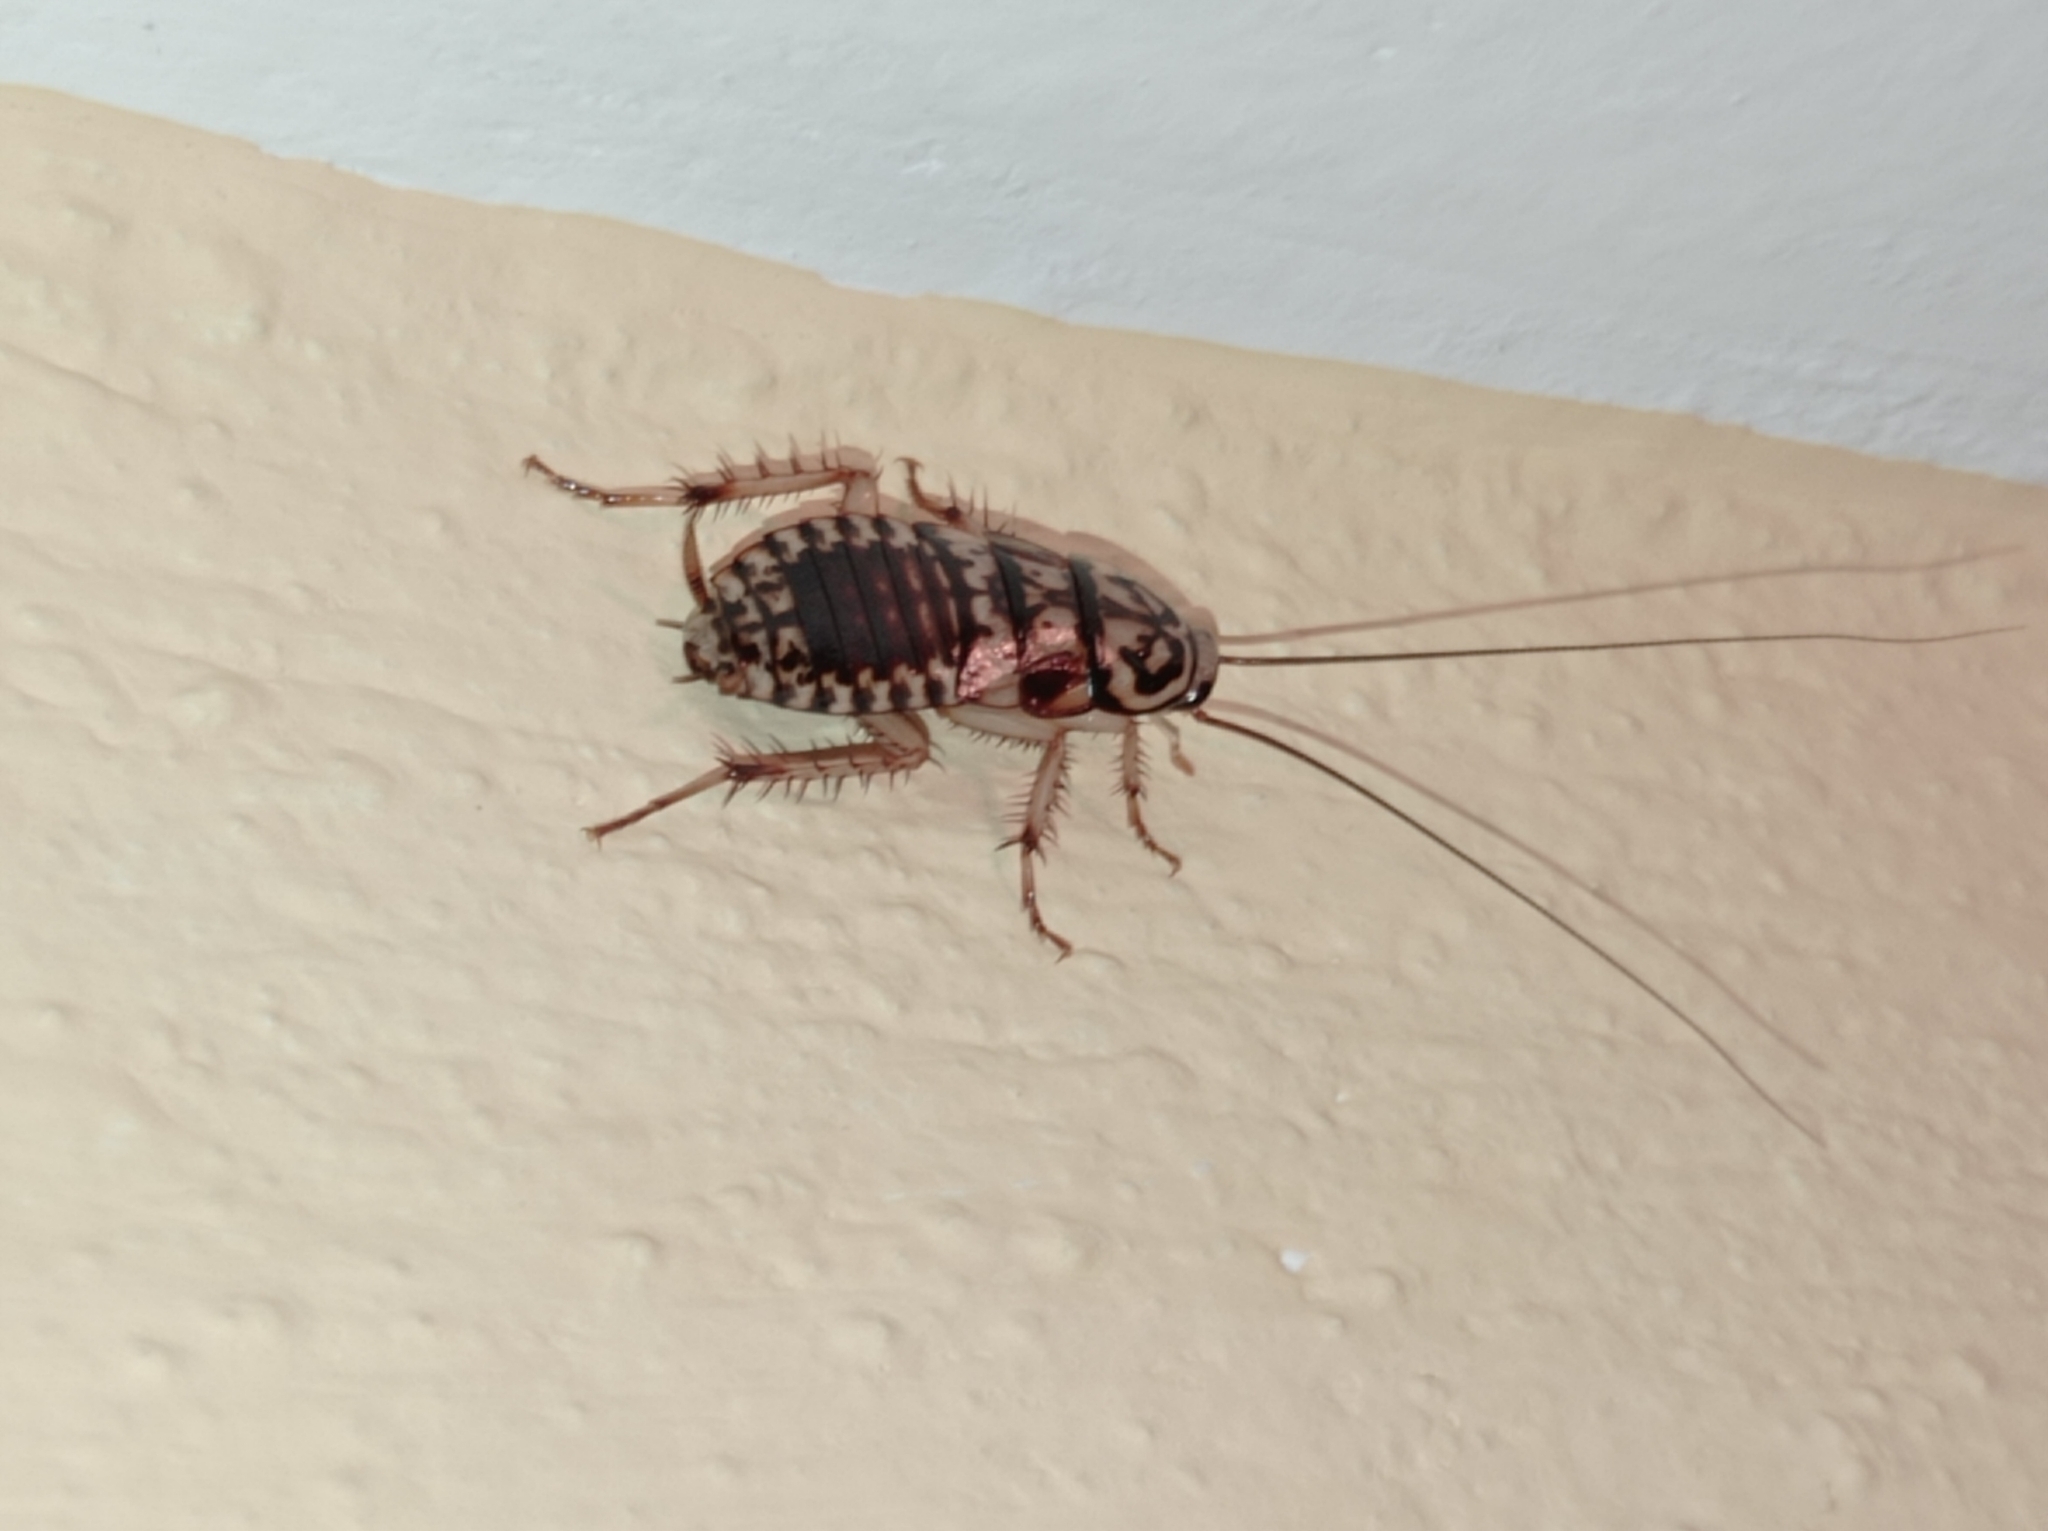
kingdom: Animalia
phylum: Arthropoda
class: Insecta
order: Blattodea
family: Blattidae
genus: Neostylopyga
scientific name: Neostylopyga rhombifolia
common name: Harlequin cockroach
